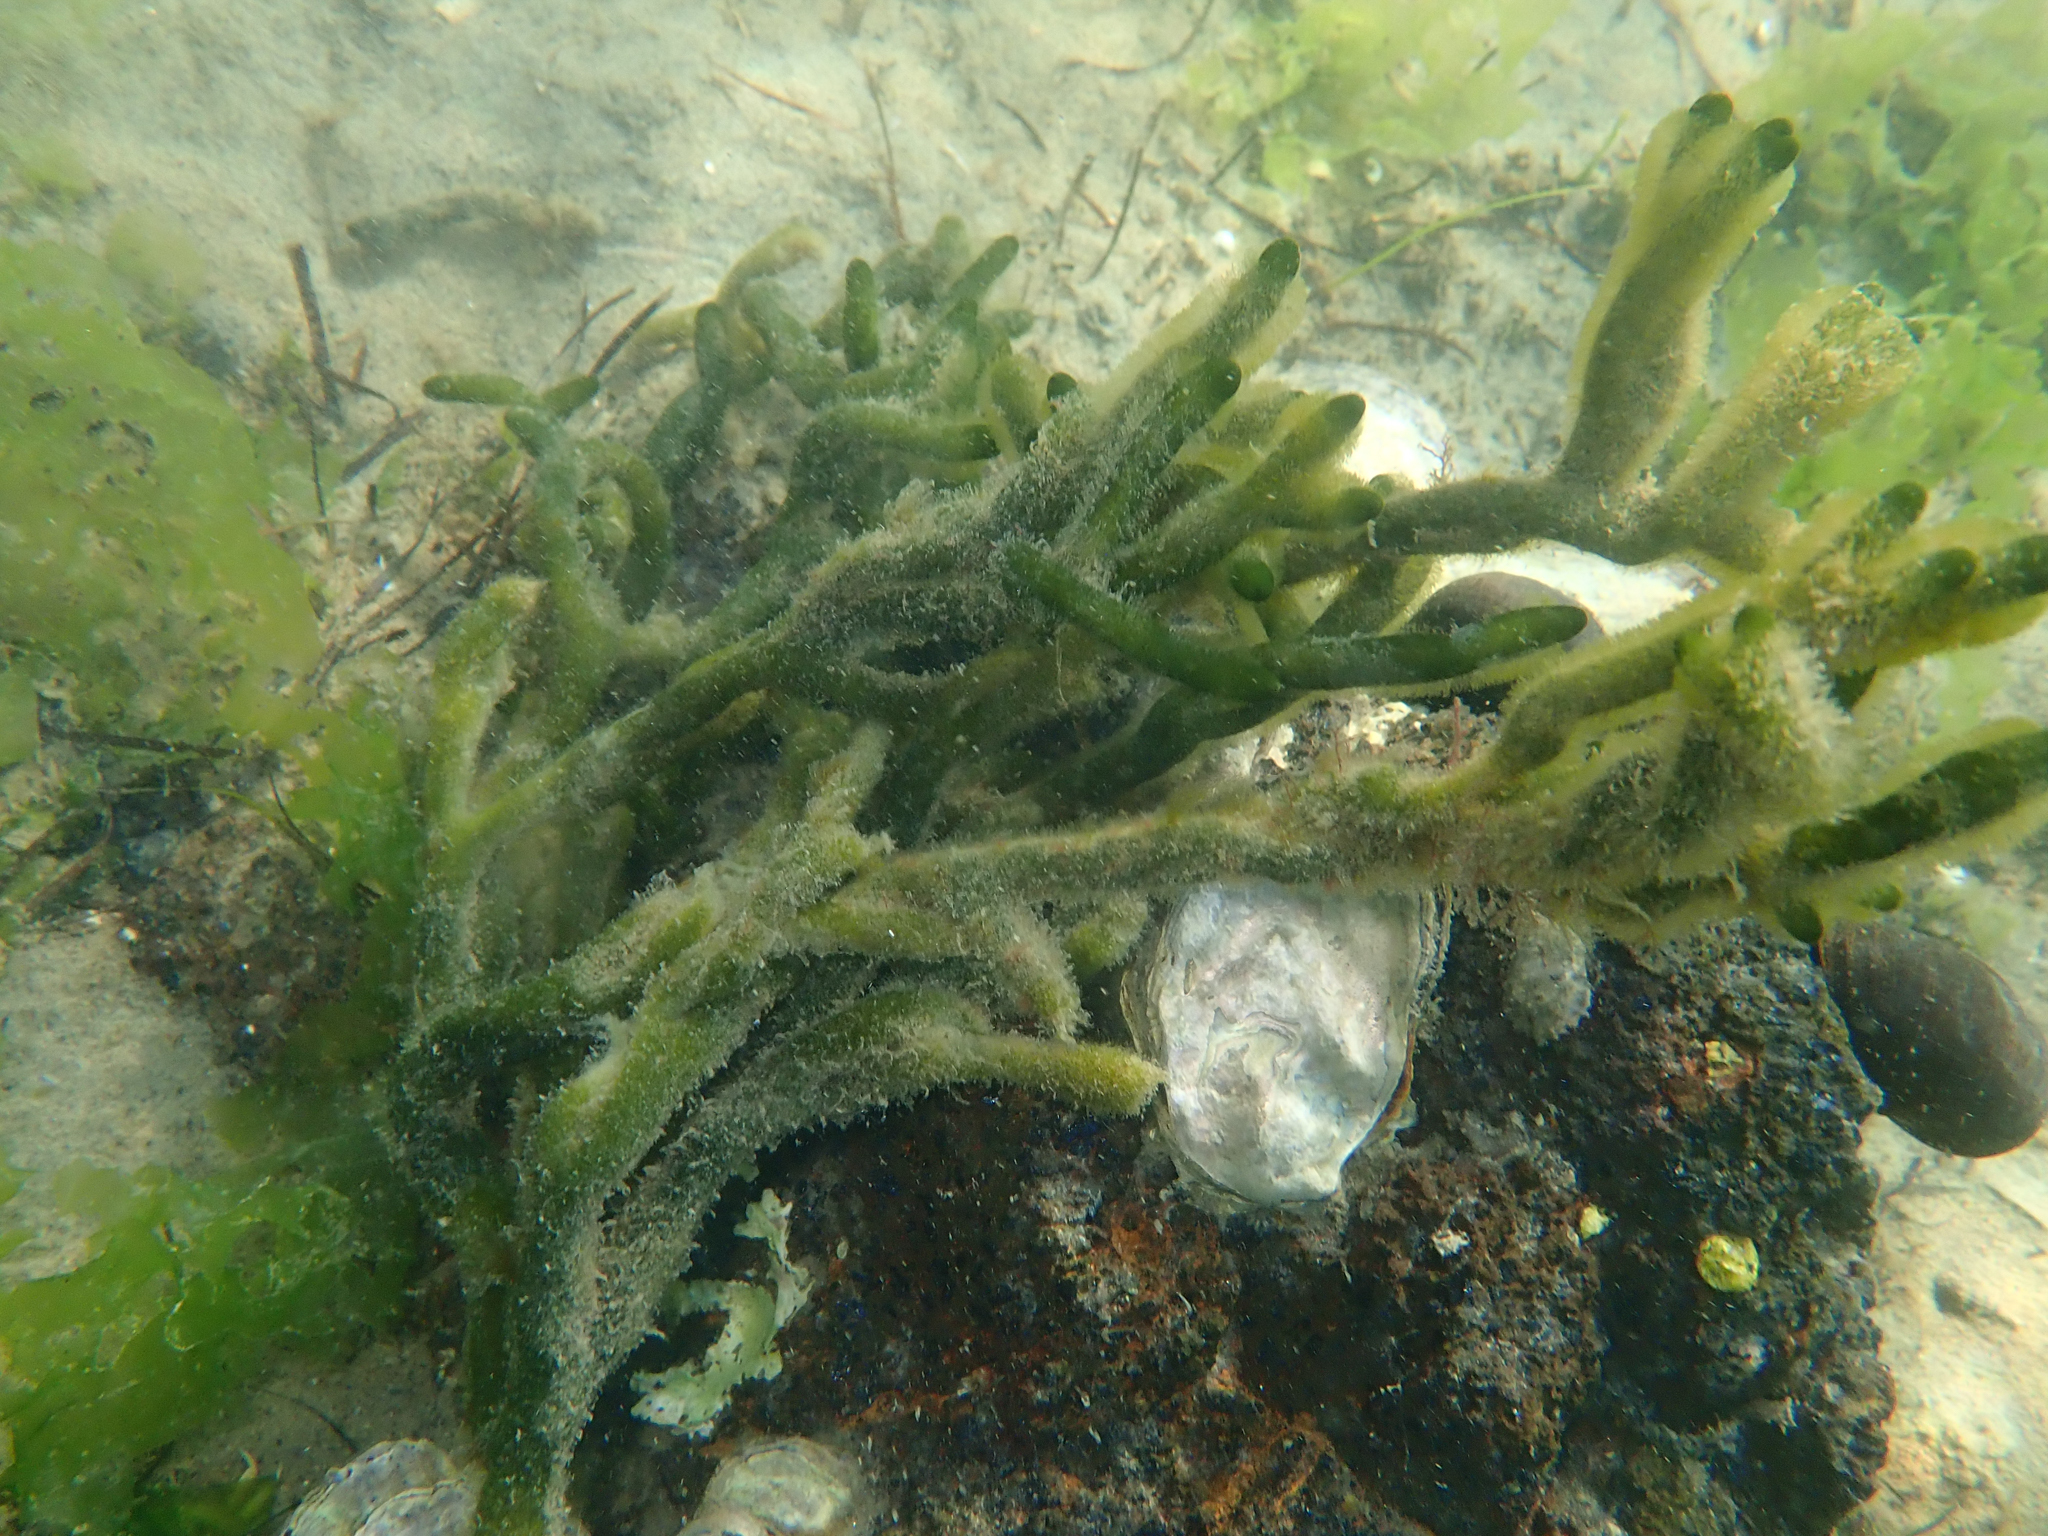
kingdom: Plantae
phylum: Chlorophyta
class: Ulvophyceae
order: Bryopsidales
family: Codiaceae
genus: Codium
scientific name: Codium fragile
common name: Dead man's fingers
